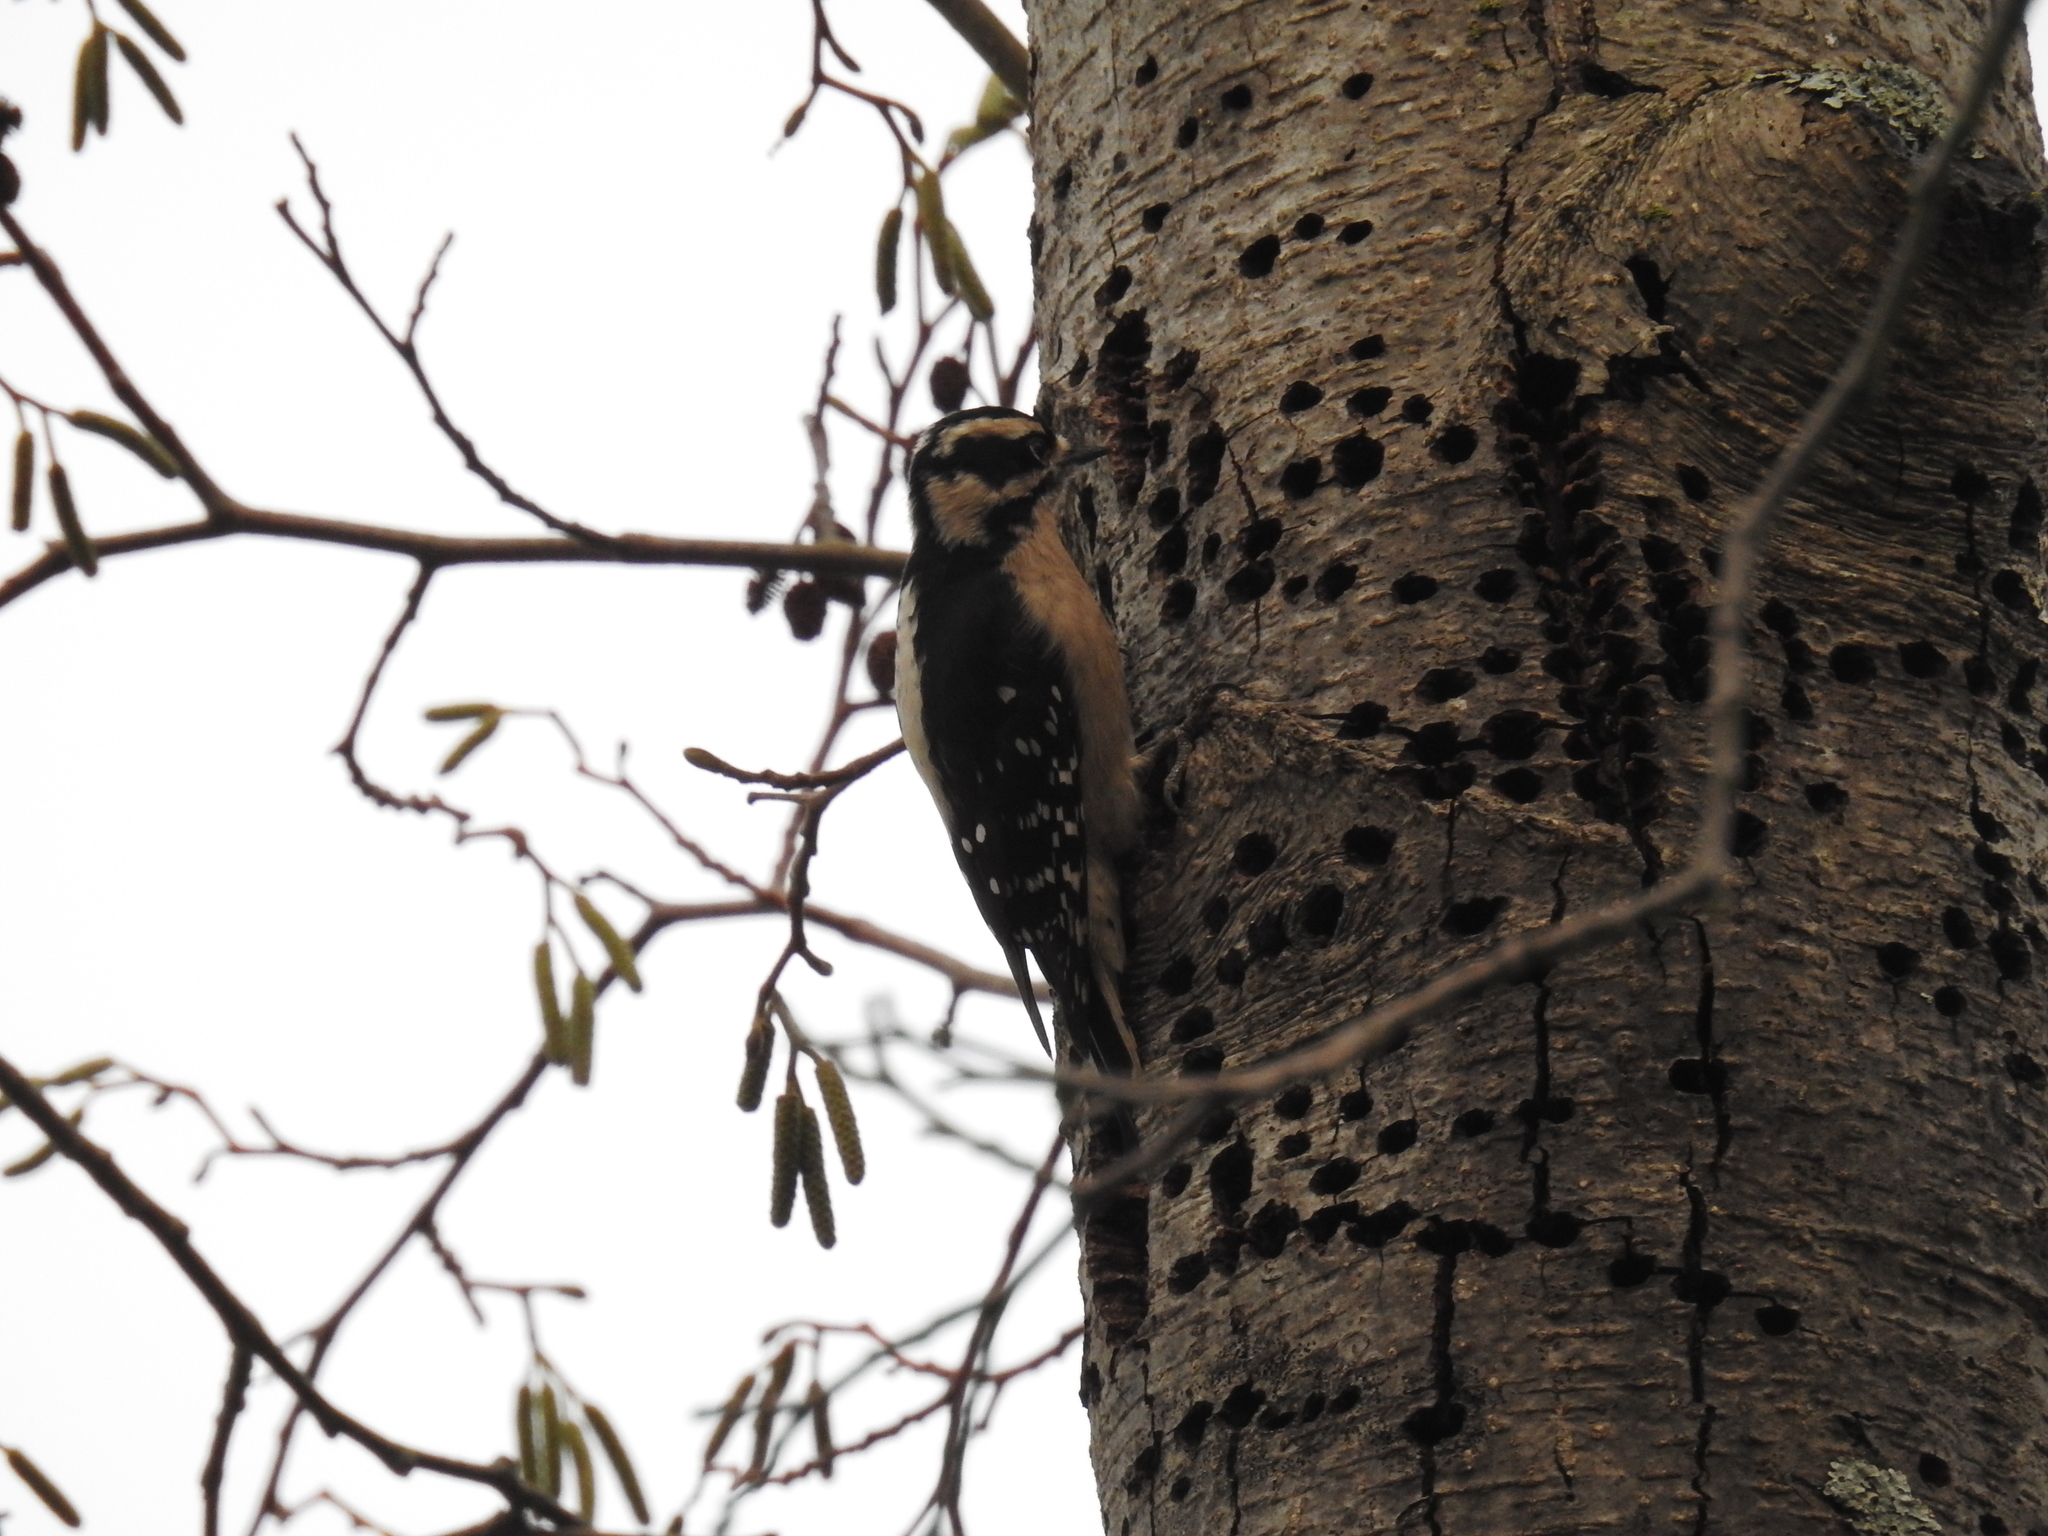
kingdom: Animalia
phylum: Chordata
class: Aves
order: Piciformes
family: Picidae
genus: Dryobates
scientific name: Dryobates pubescens
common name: Downy woodpecker
